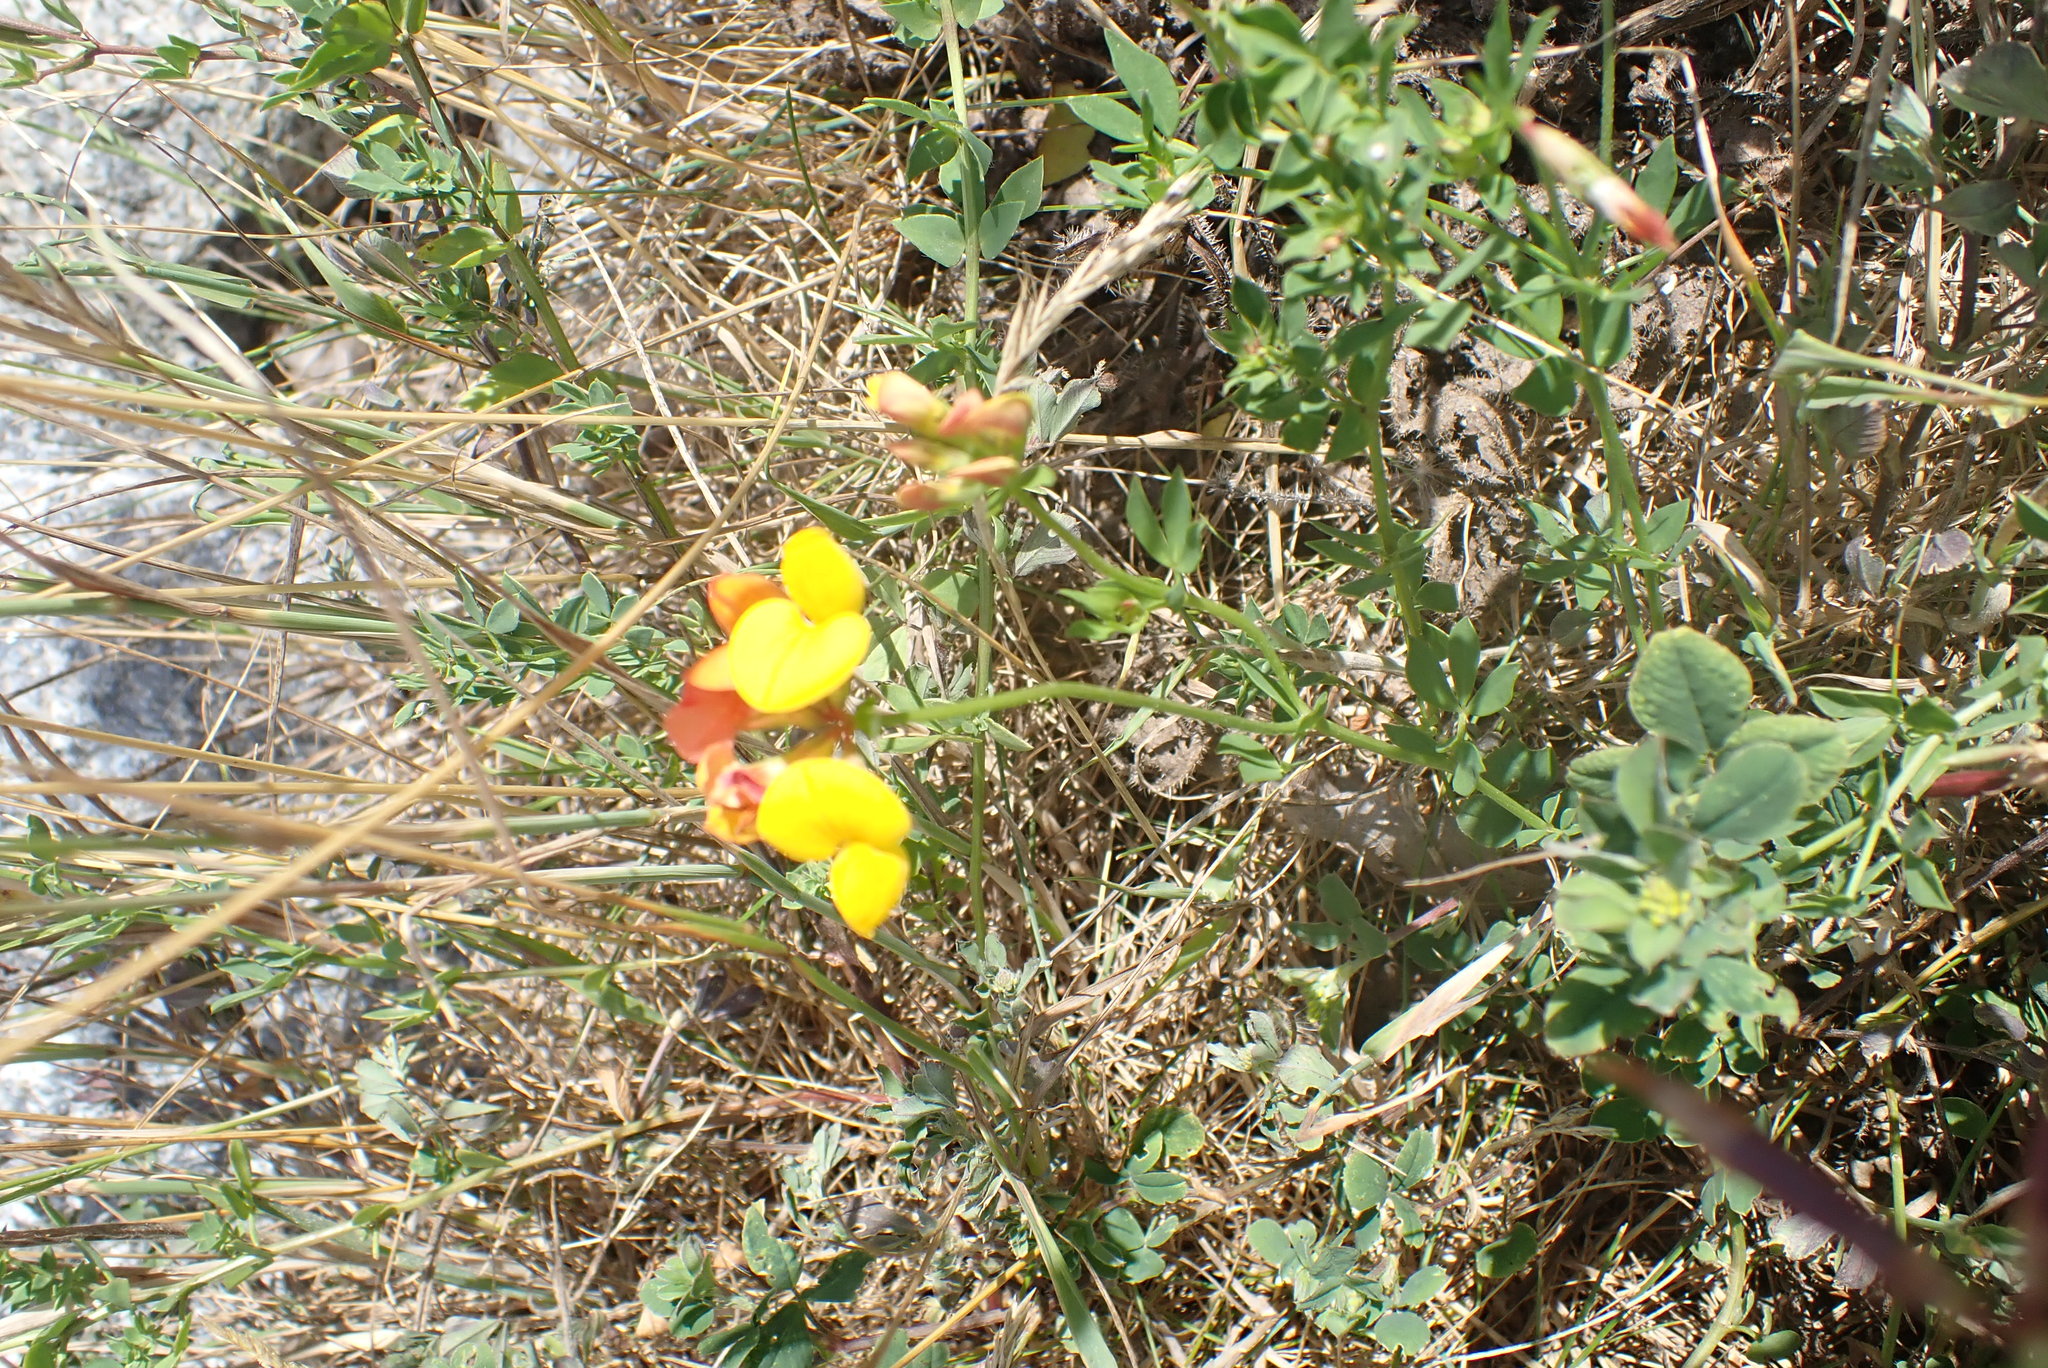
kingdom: Plantae
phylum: Tracheophyta
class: Magnoliopsida
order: Fabales
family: Fabaceae
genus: Lotus
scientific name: Lotus corniculatus
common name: Common bird's-foot-trefoil
